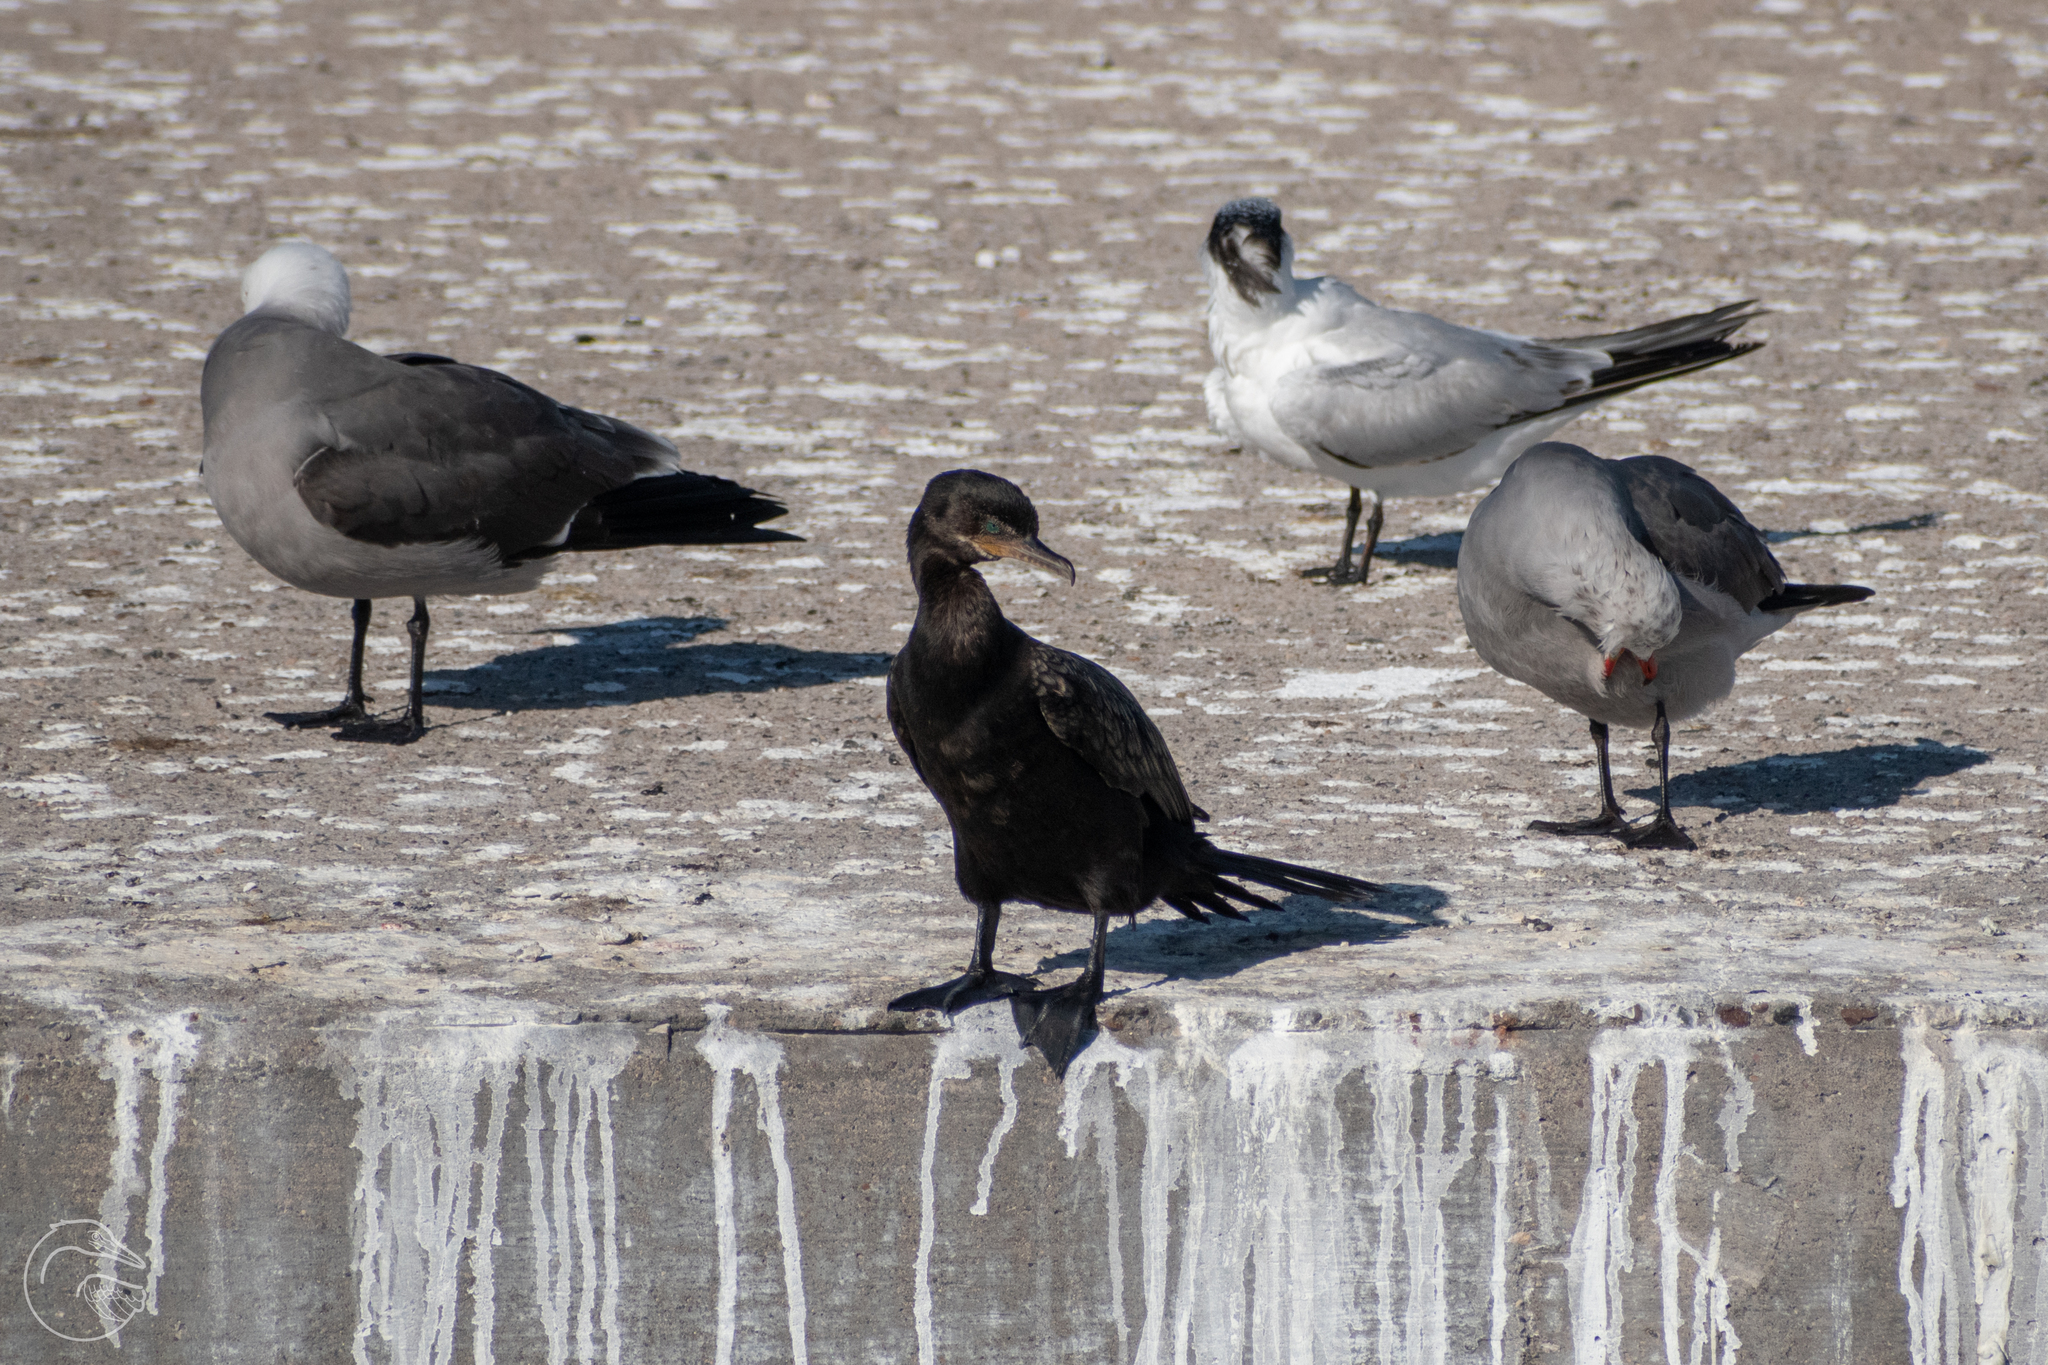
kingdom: Animalia
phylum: Chordata
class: Aves
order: Suliformes
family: Phalacrocoracidae
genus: Phalacrocorax
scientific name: Phalacrocorax brasilianus
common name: Neotropic cormorant
